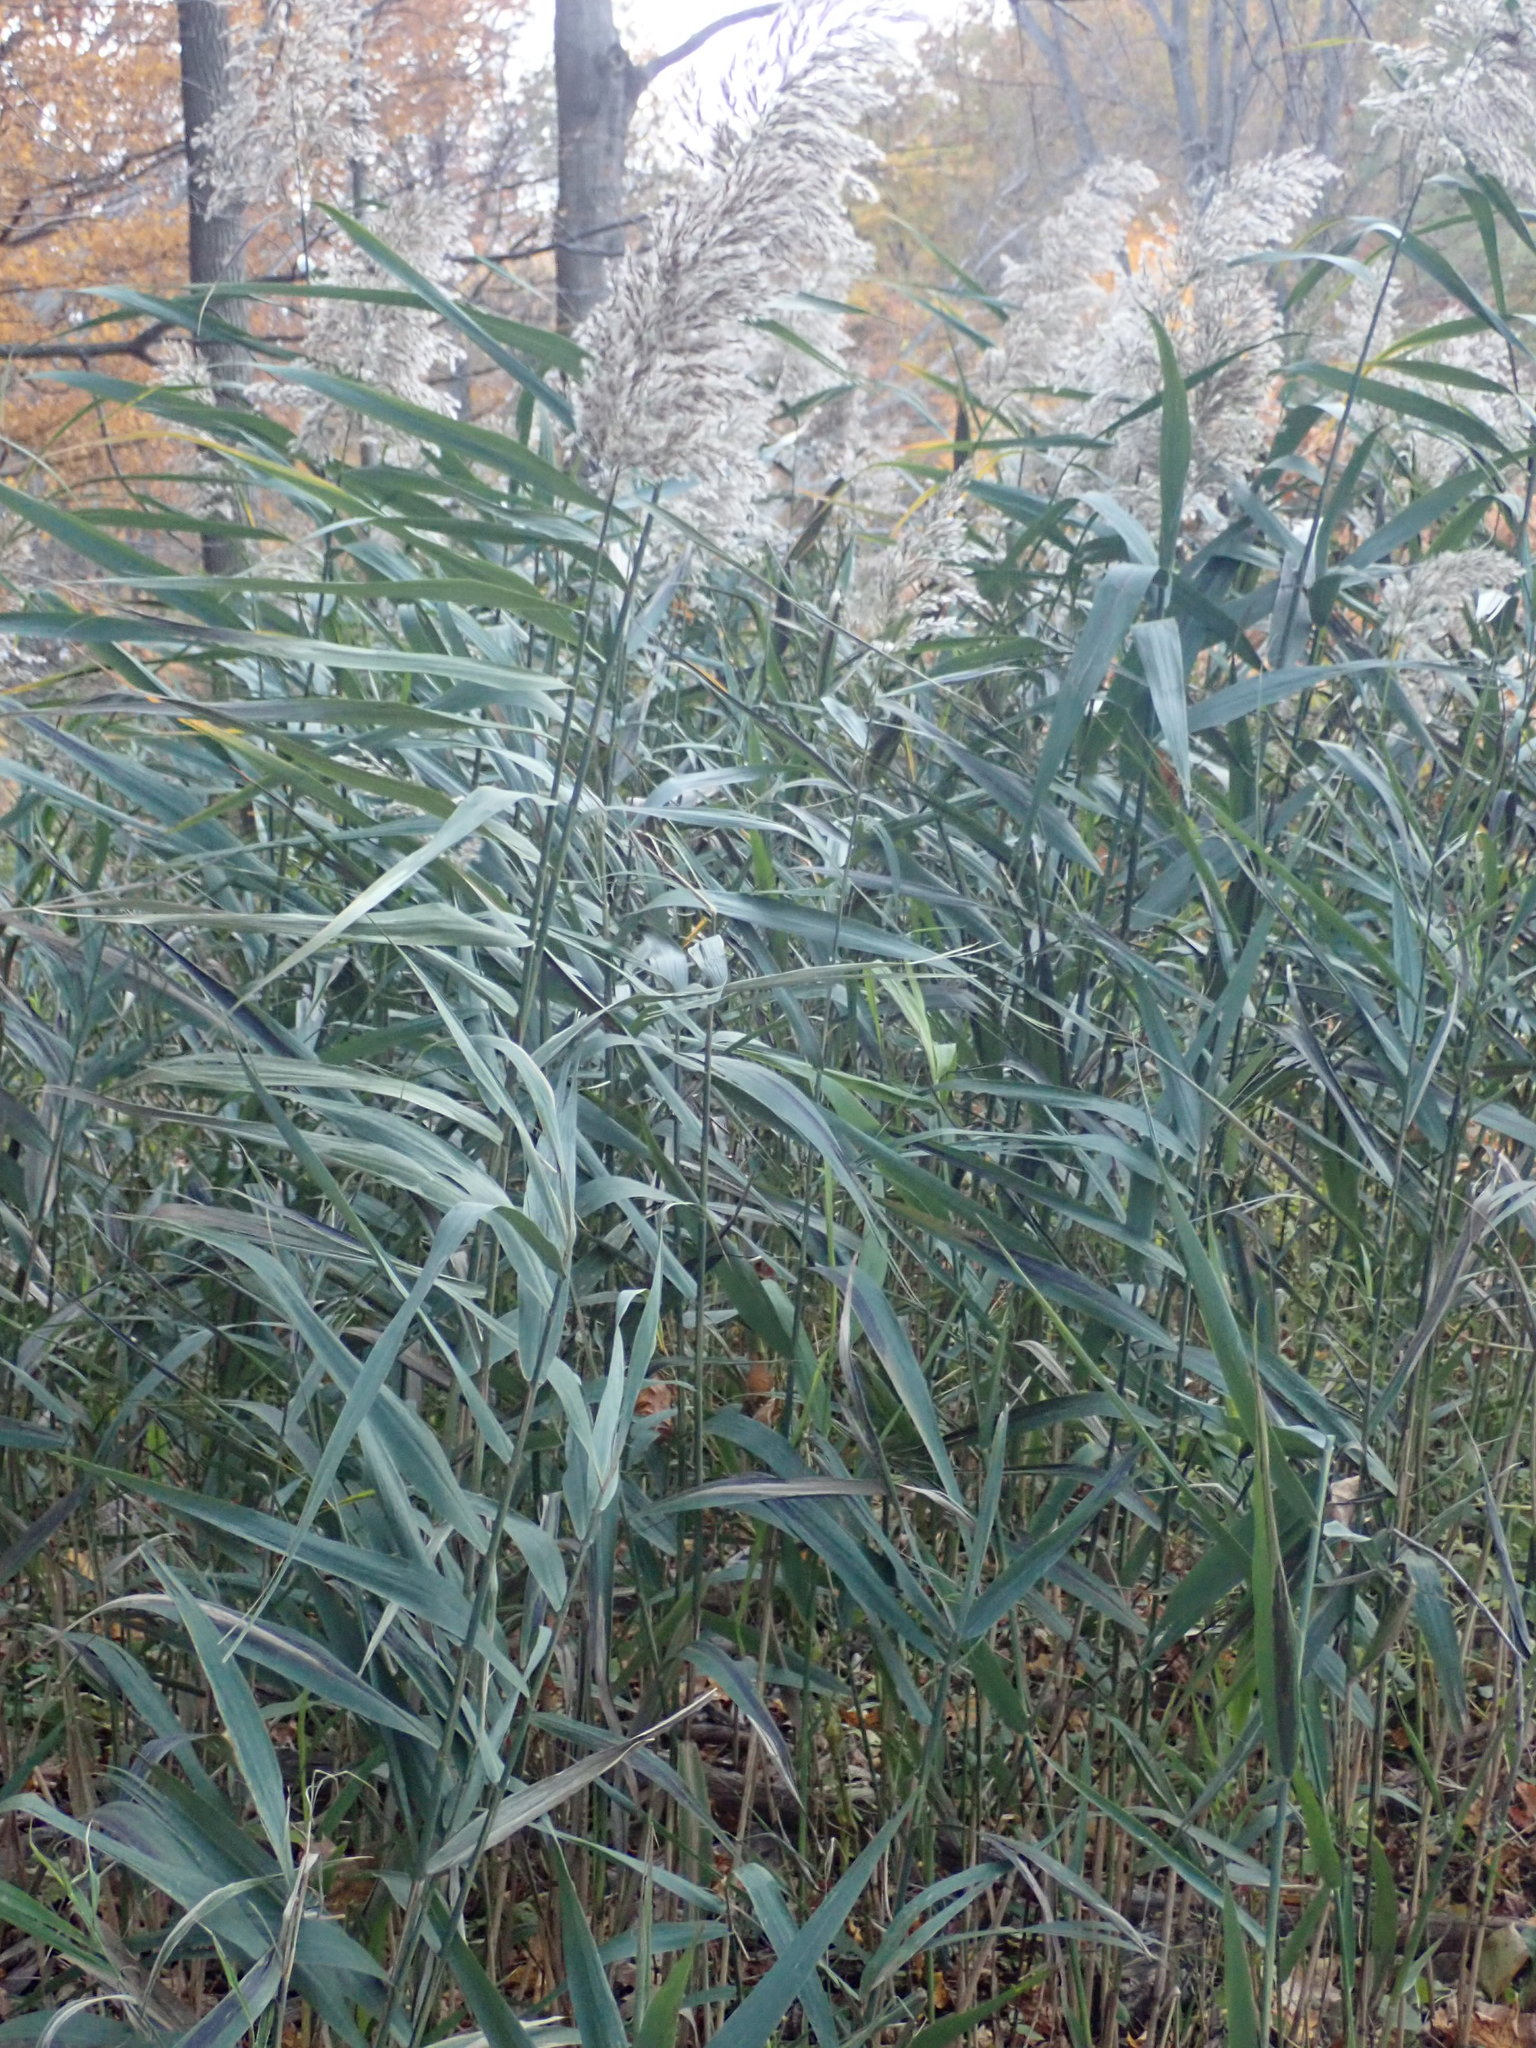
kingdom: Plantae
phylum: Tracheophyta
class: Liliopsida
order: Poales
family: Poaceae
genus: Phragmites
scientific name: Phragmites australis
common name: Common reed
